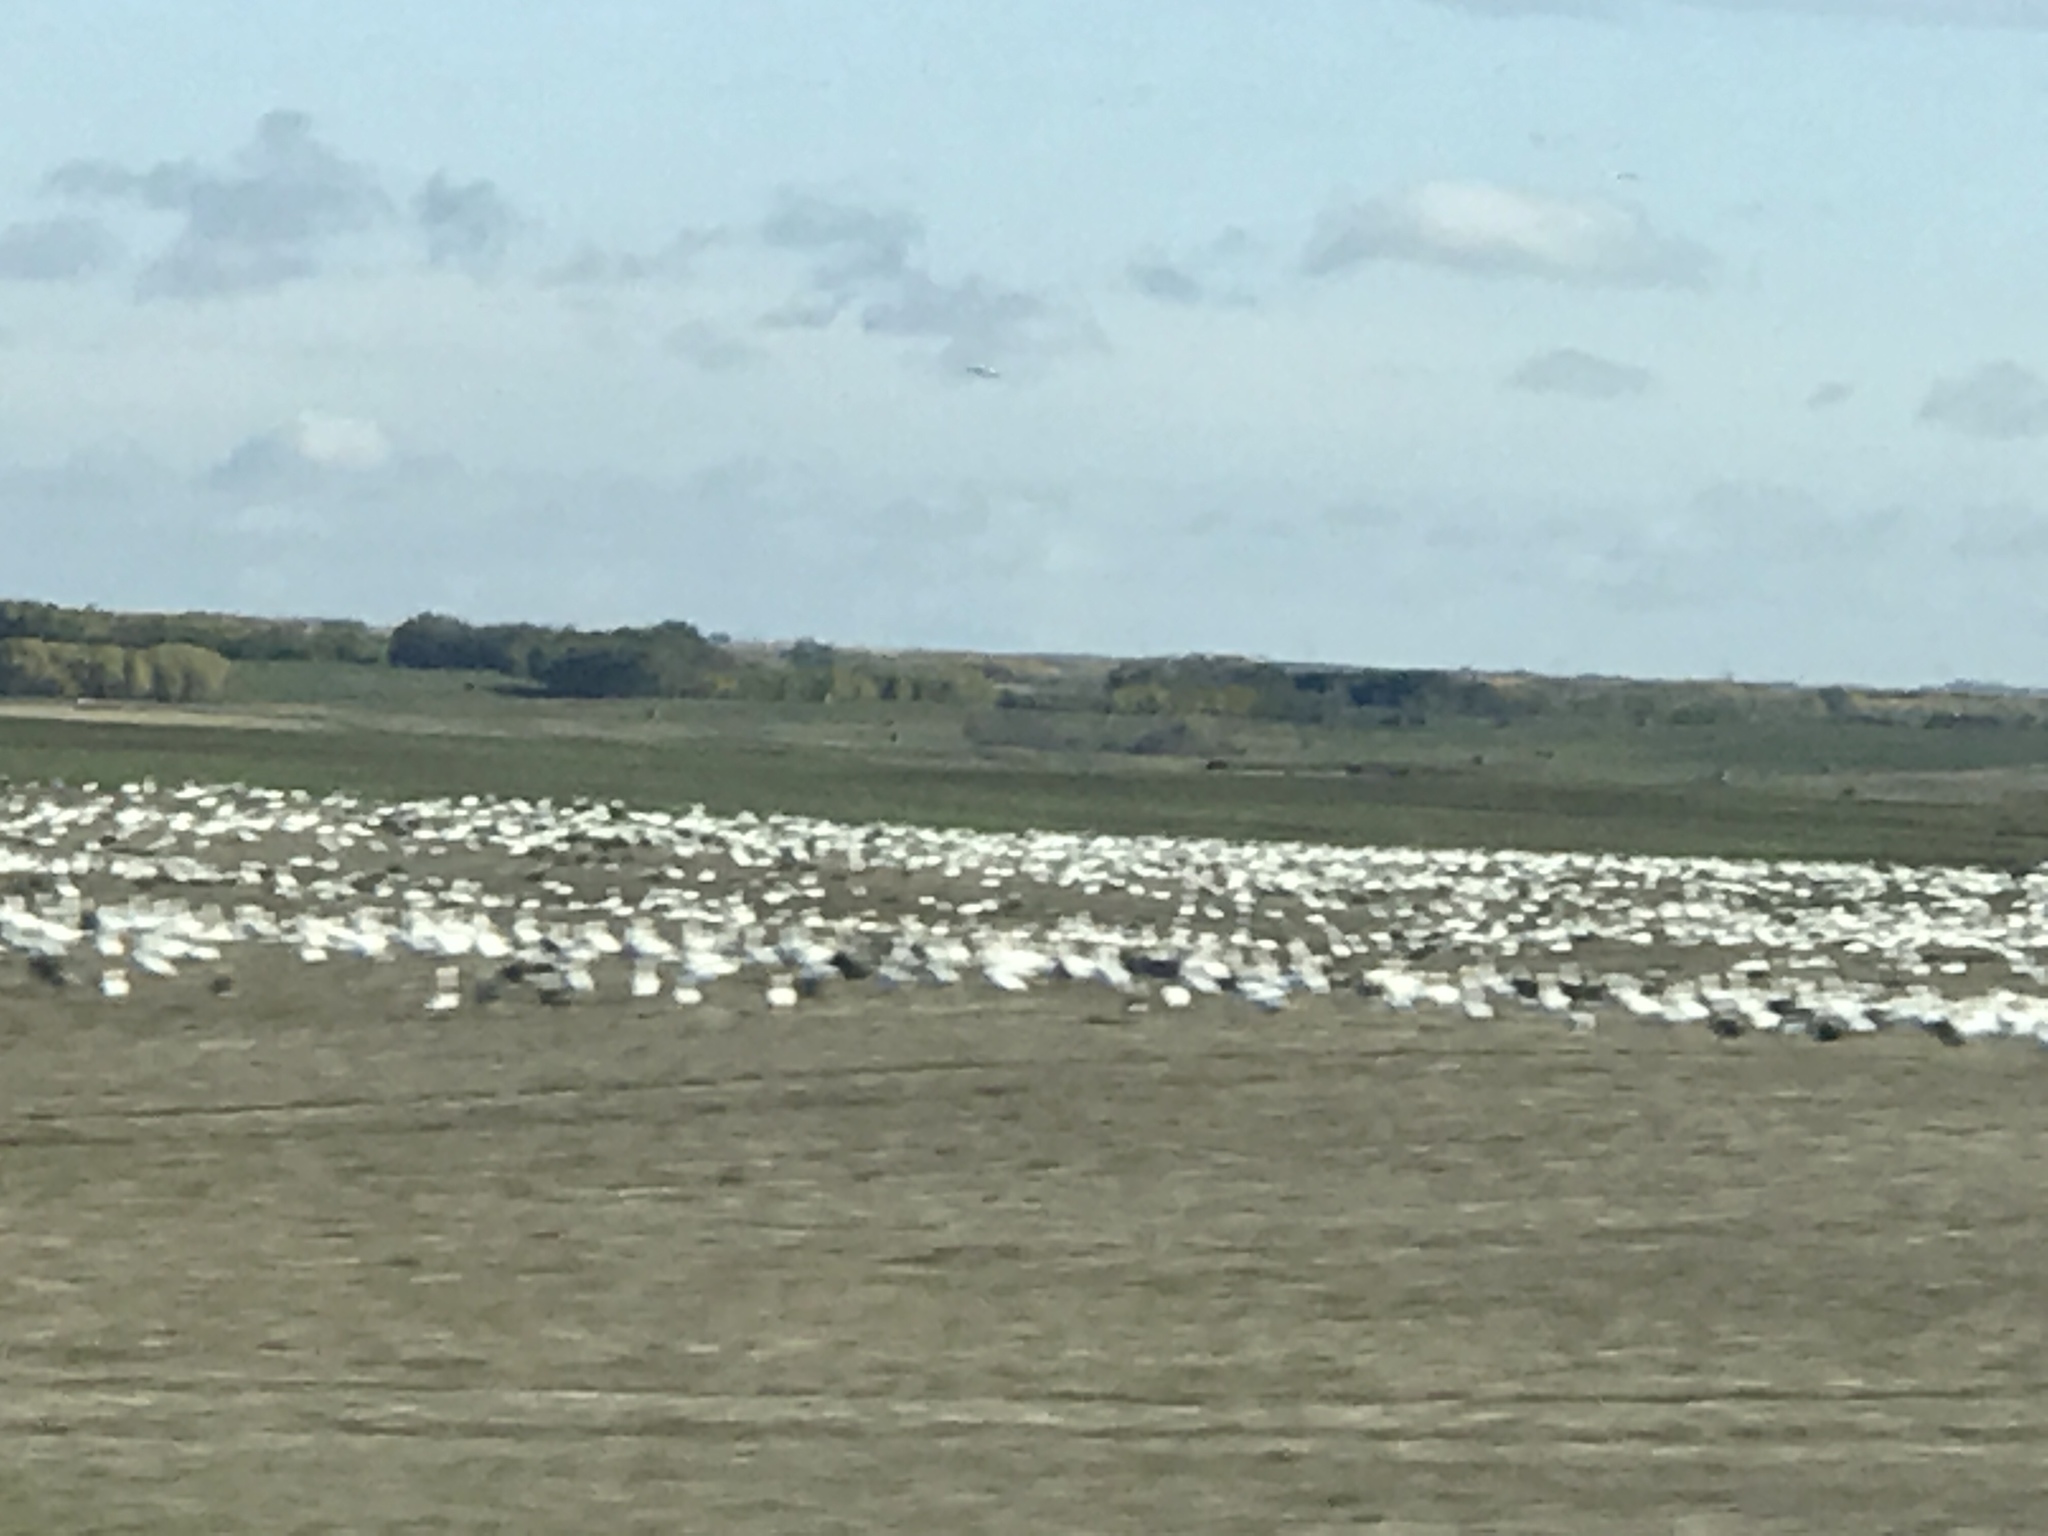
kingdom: Animalia
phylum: Chordata
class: Aves
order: Anseriformes
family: Anatidae
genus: Anser
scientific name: Anser caerulescens
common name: Snow goose
